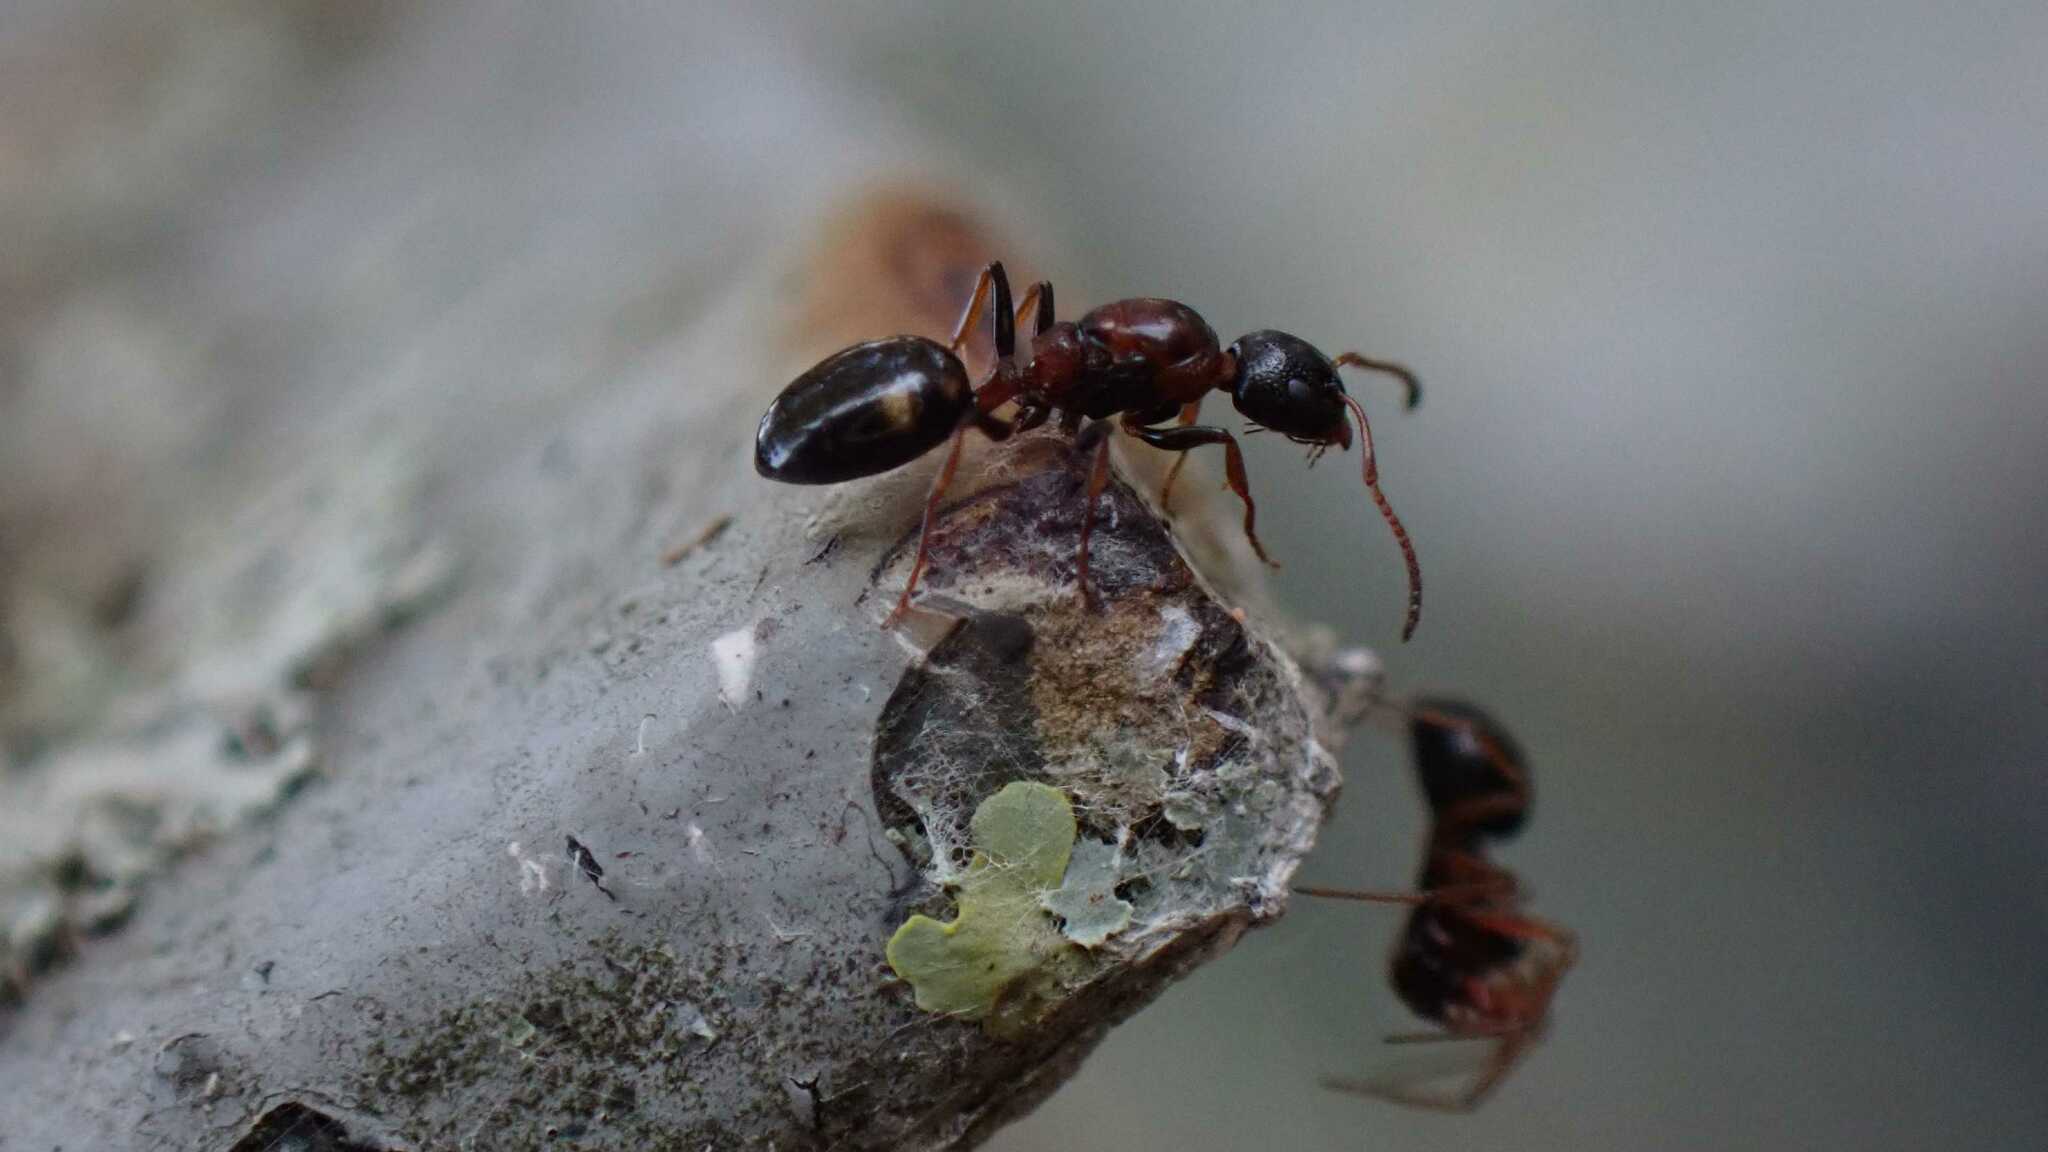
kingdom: Animalia
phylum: Arthropoda
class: Insecta
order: Hymenoptera
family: Formicidae
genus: Dolichoderus
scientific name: Dolichoderus quadripunctatus
